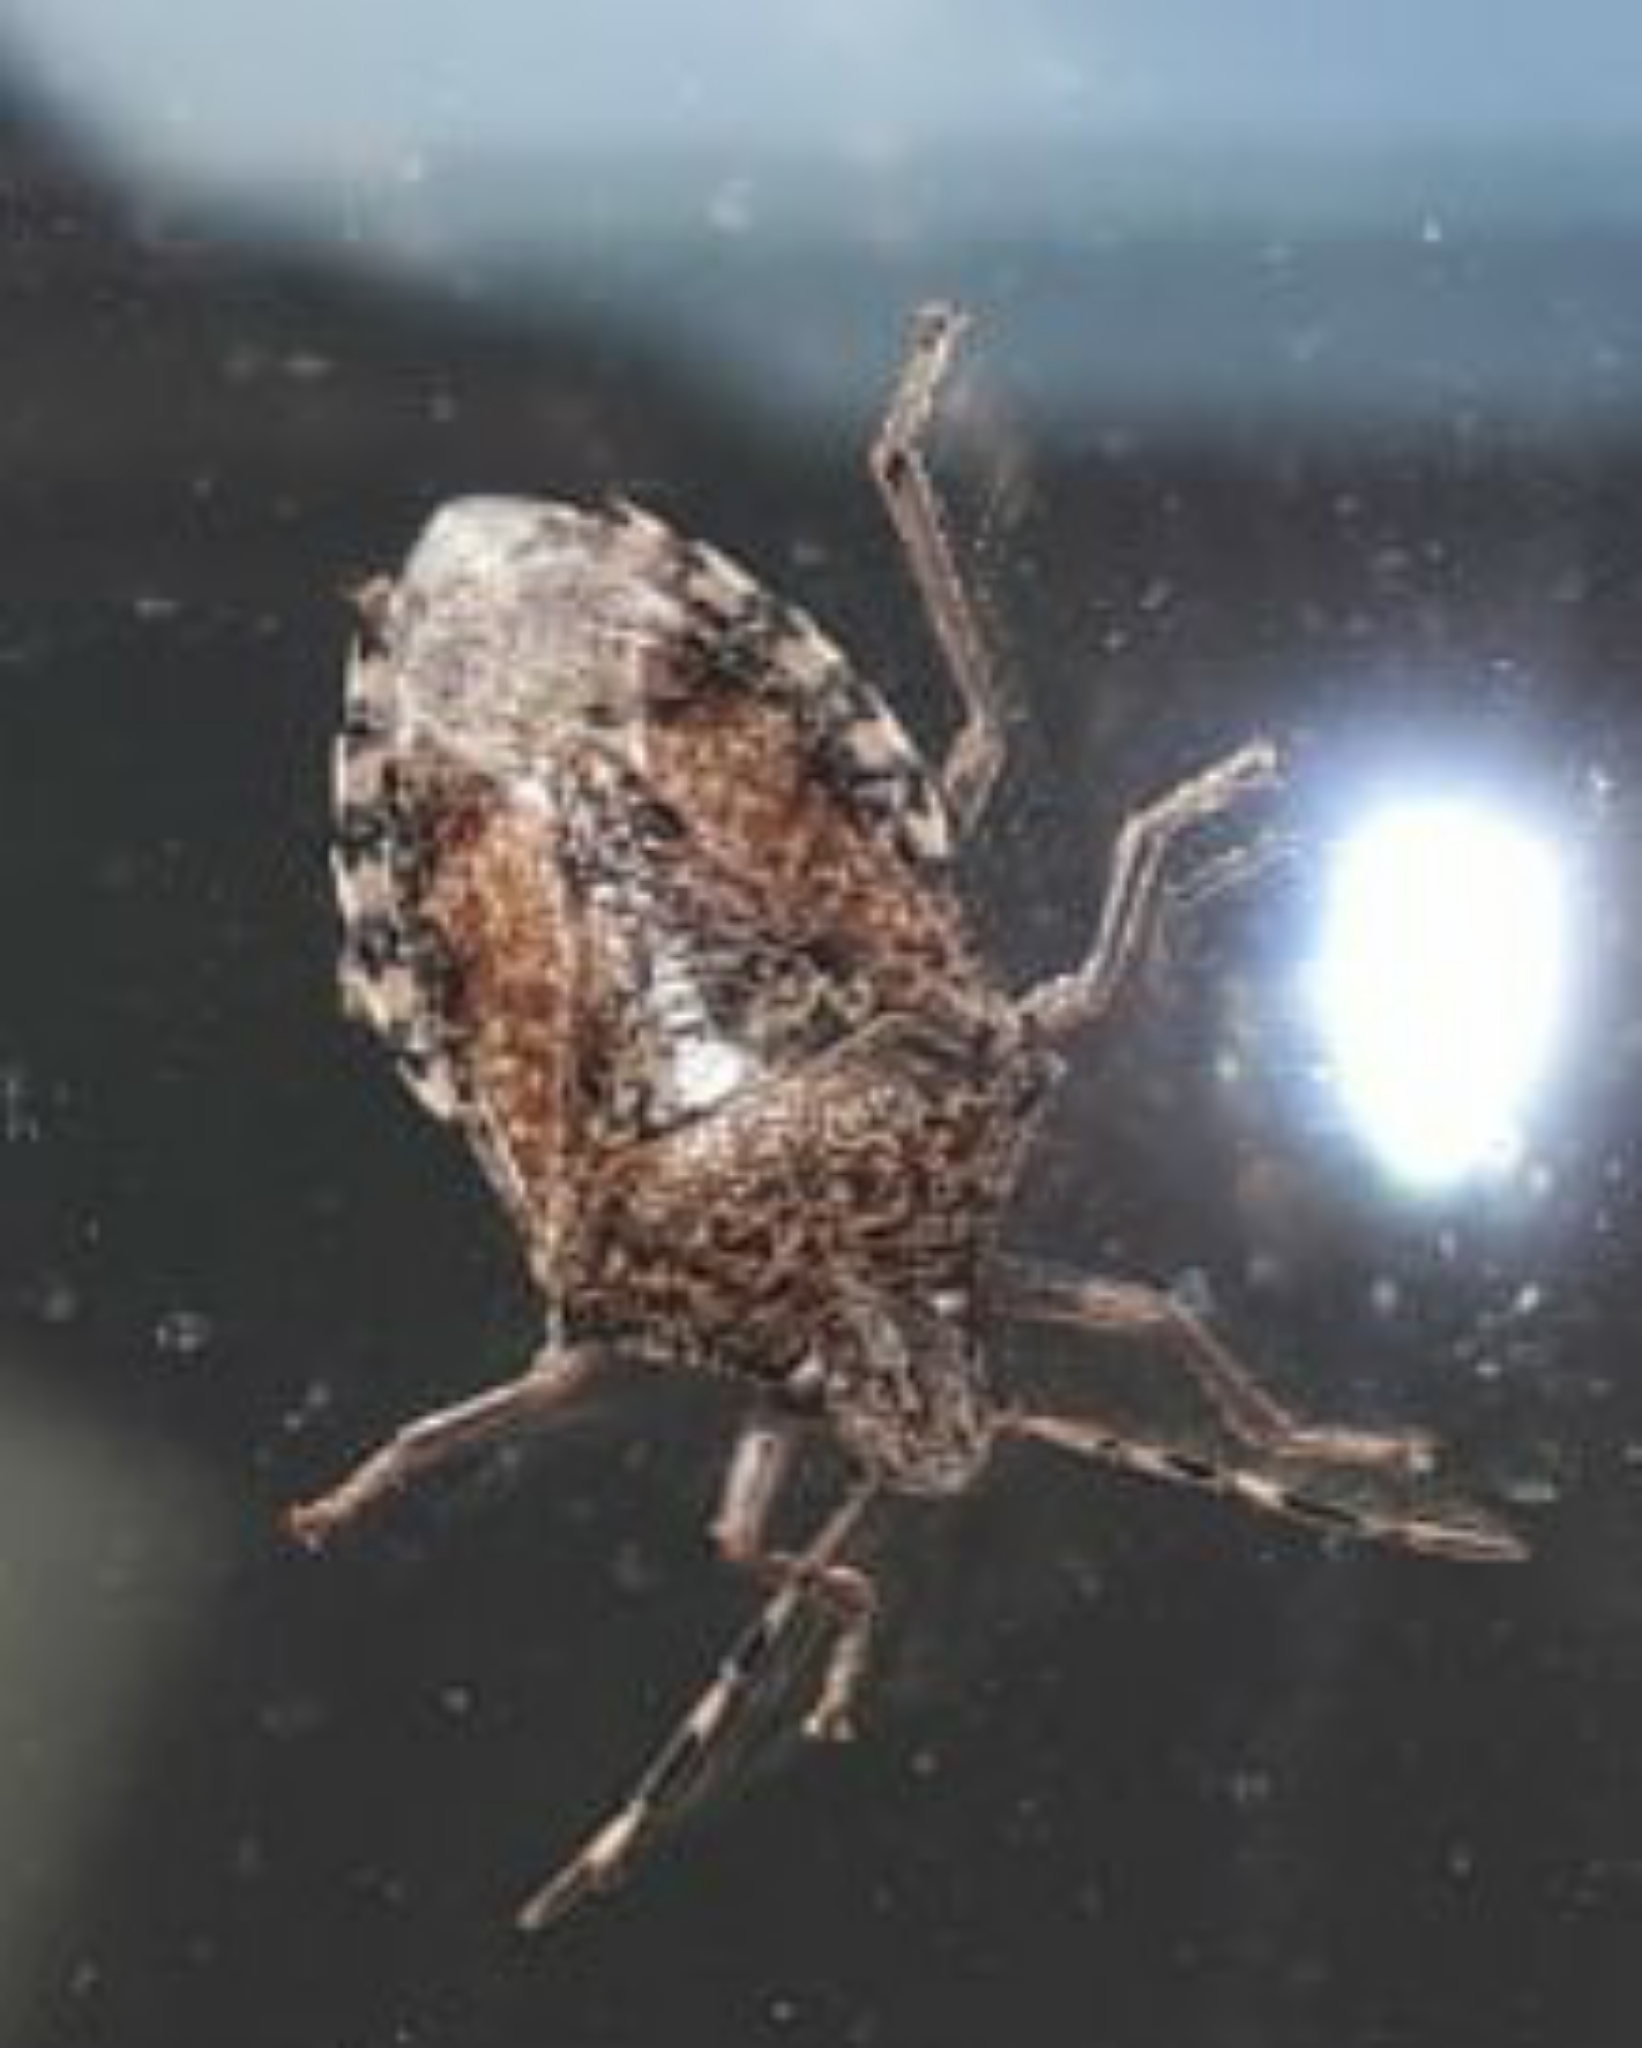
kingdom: Animalia
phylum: Arthropoda
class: Insecta
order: Hemiptera
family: Pentatomidae
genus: Rhaphigaster
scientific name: Rhaphigaster nebulosa
